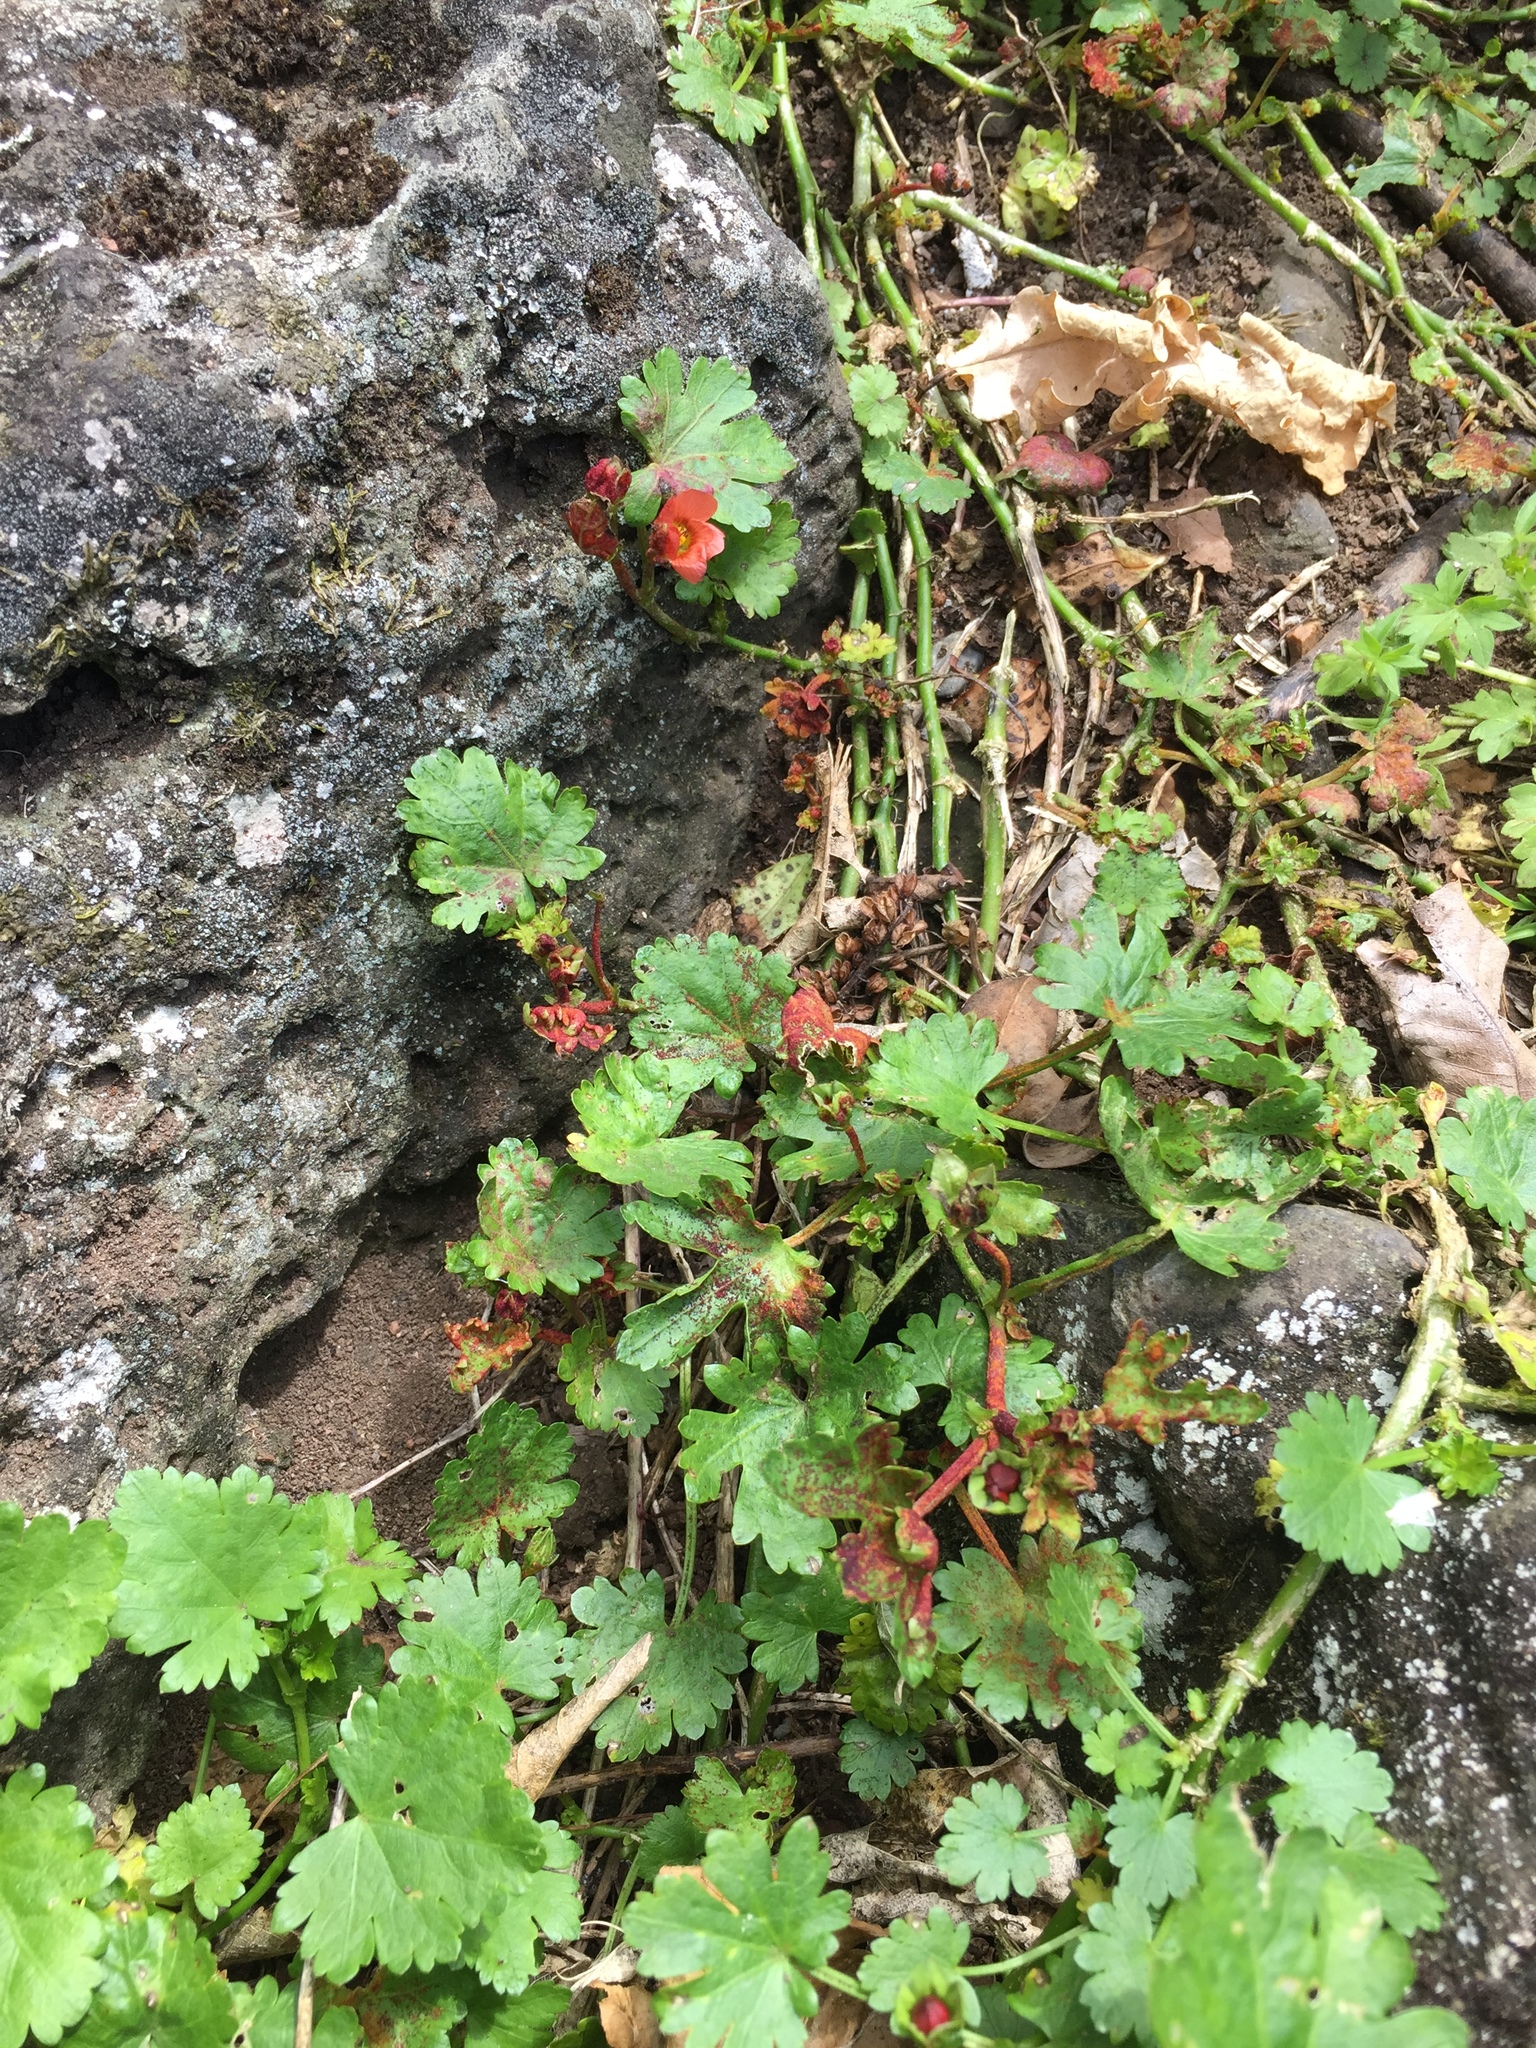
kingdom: Fungi
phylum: Chytridiomycota
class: Chytridiomycetes
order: Chytridiales
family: Synchytriaceae
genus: Synchytrium
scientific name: Synchytrium australe
